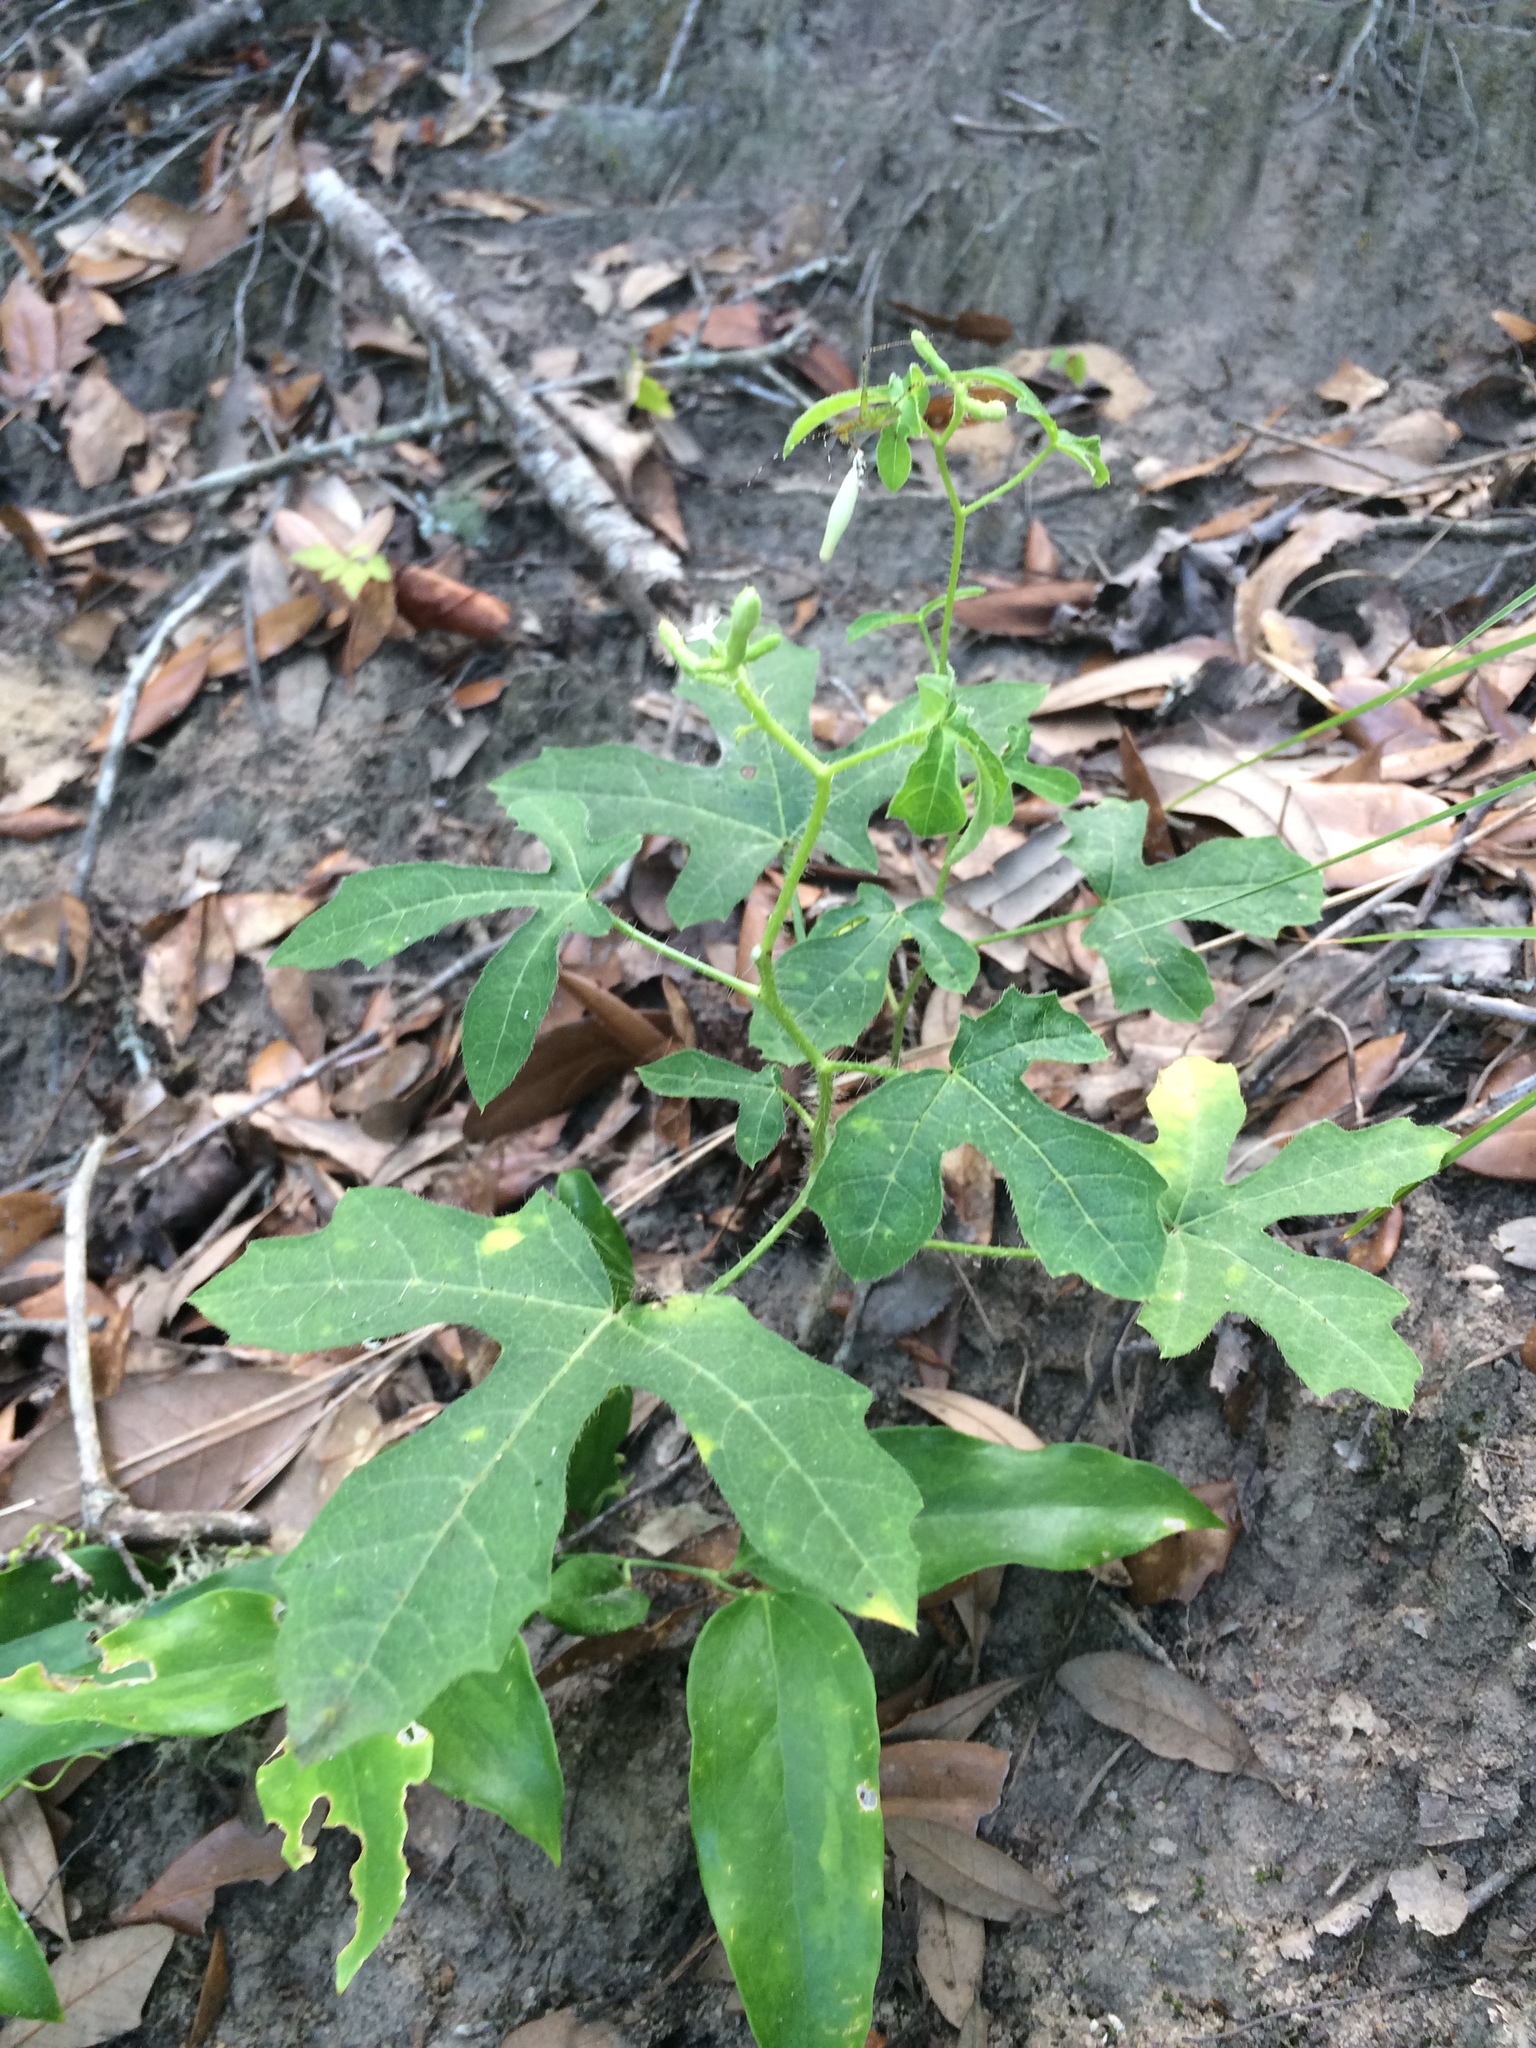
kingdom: Plantae
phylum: Tracheophyta
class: Magnoliopsida
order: Malpighiales
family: Euphorbiaceae
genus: Cnidoscolus
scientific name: Cnidoscolus stimulosus
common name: Bull-nettle
